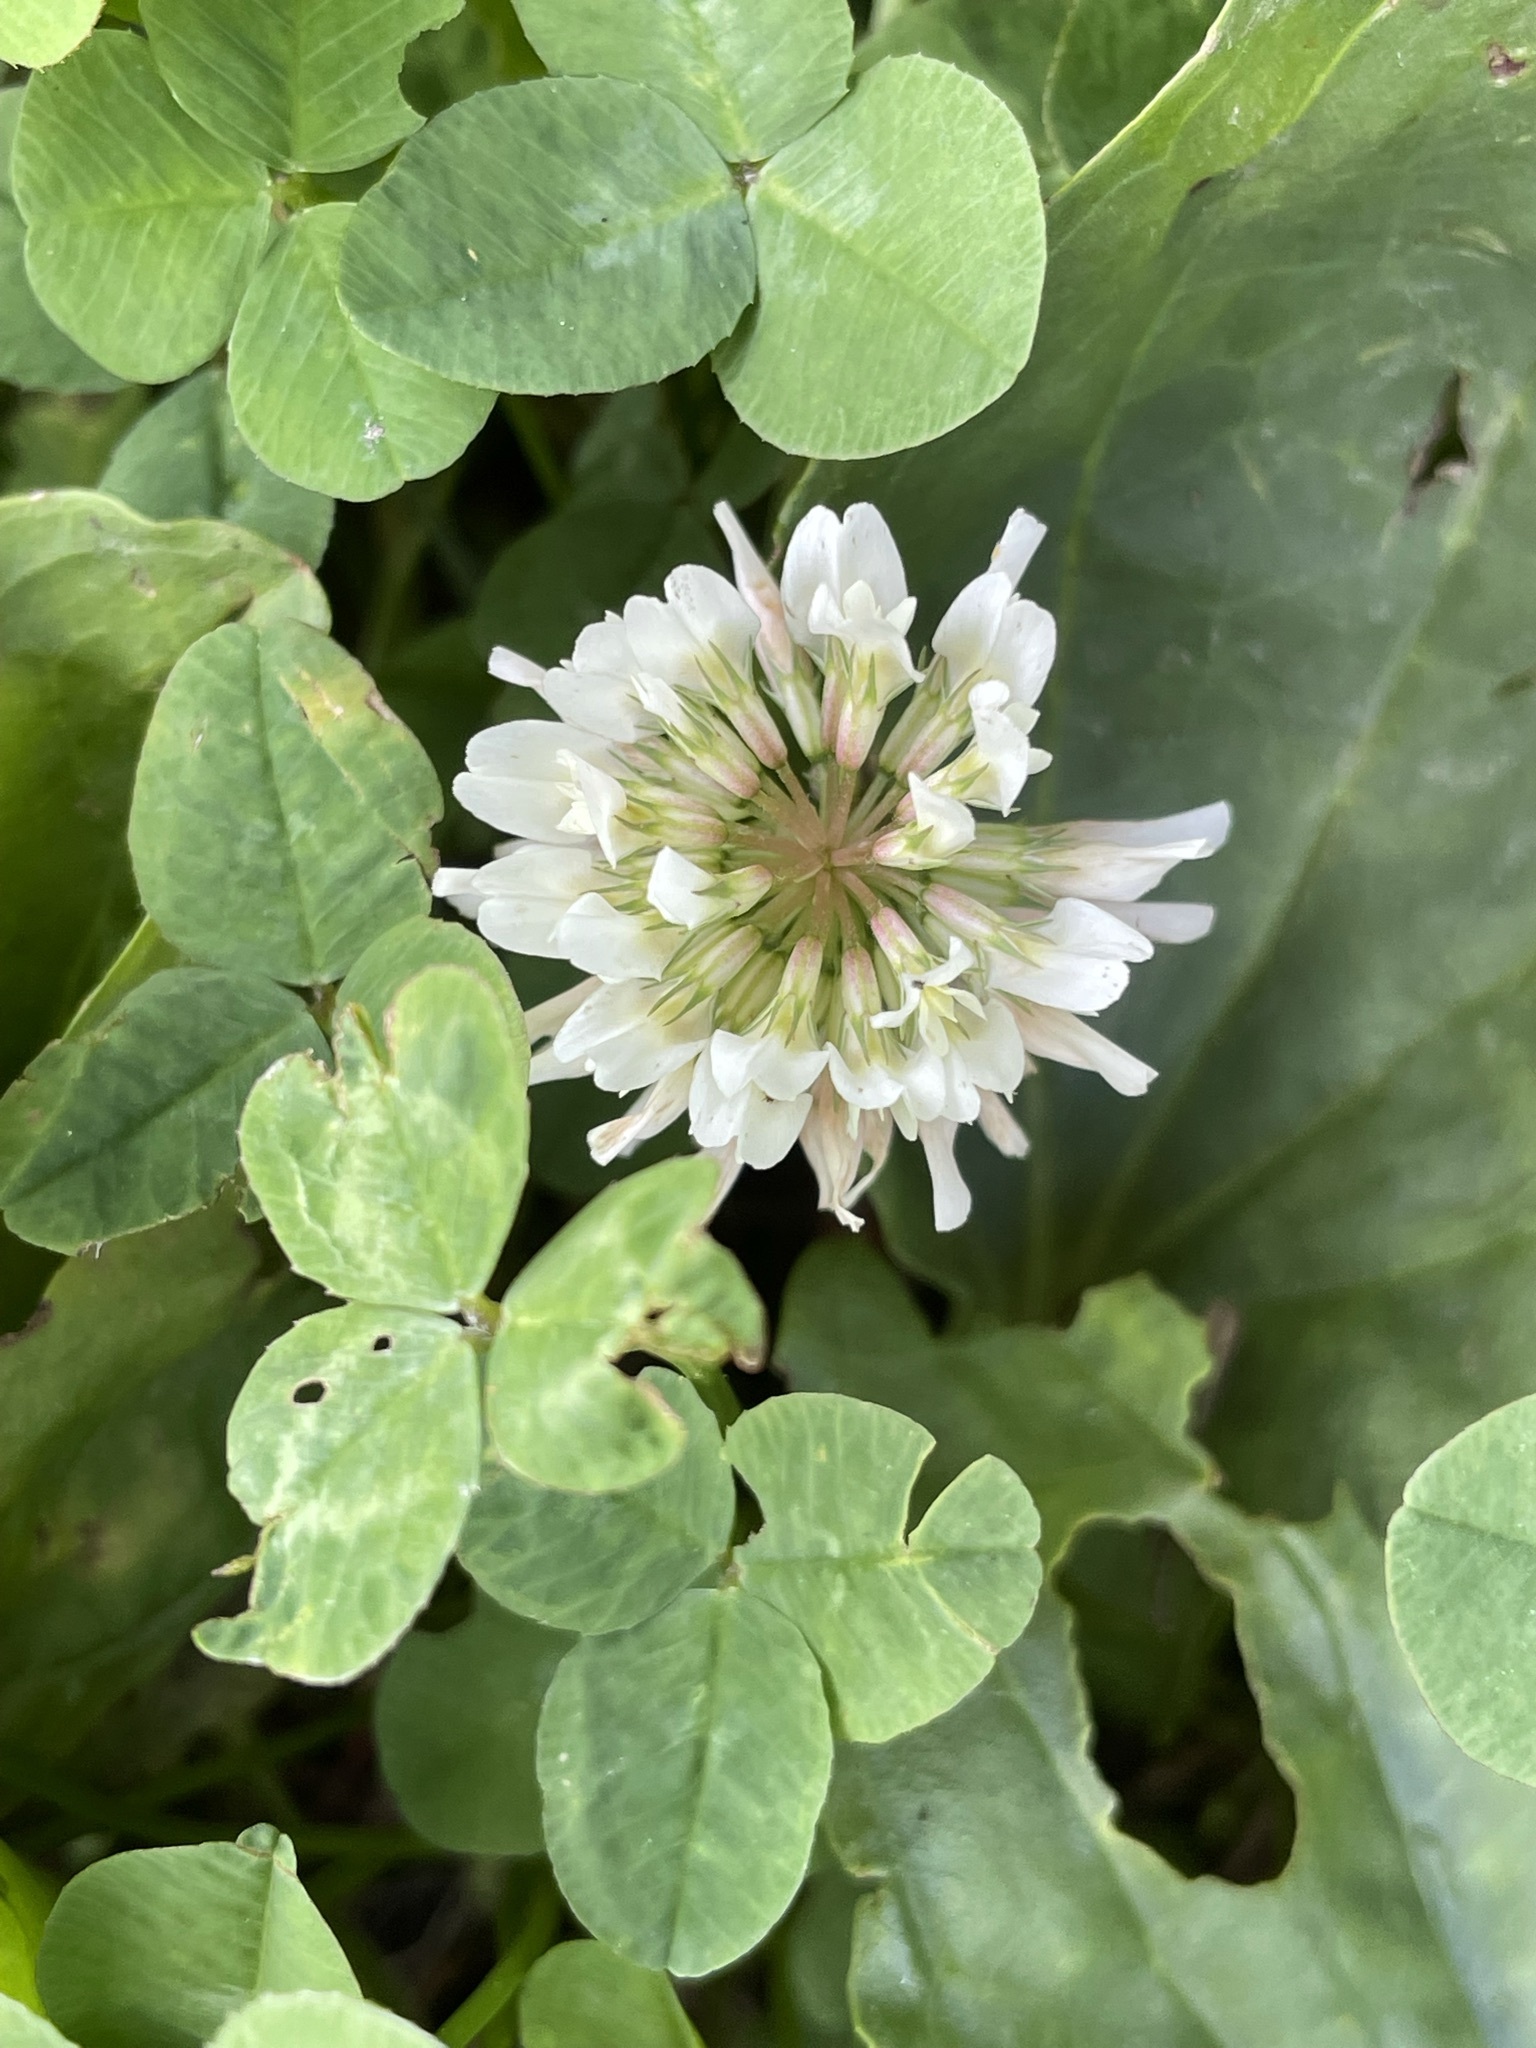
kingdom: Plantae
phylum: Tracheophyta
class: Magnoliopsida
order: Fabales
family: Fabaceae
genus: Trifolium
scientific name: Trifolium repens
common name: White clover
